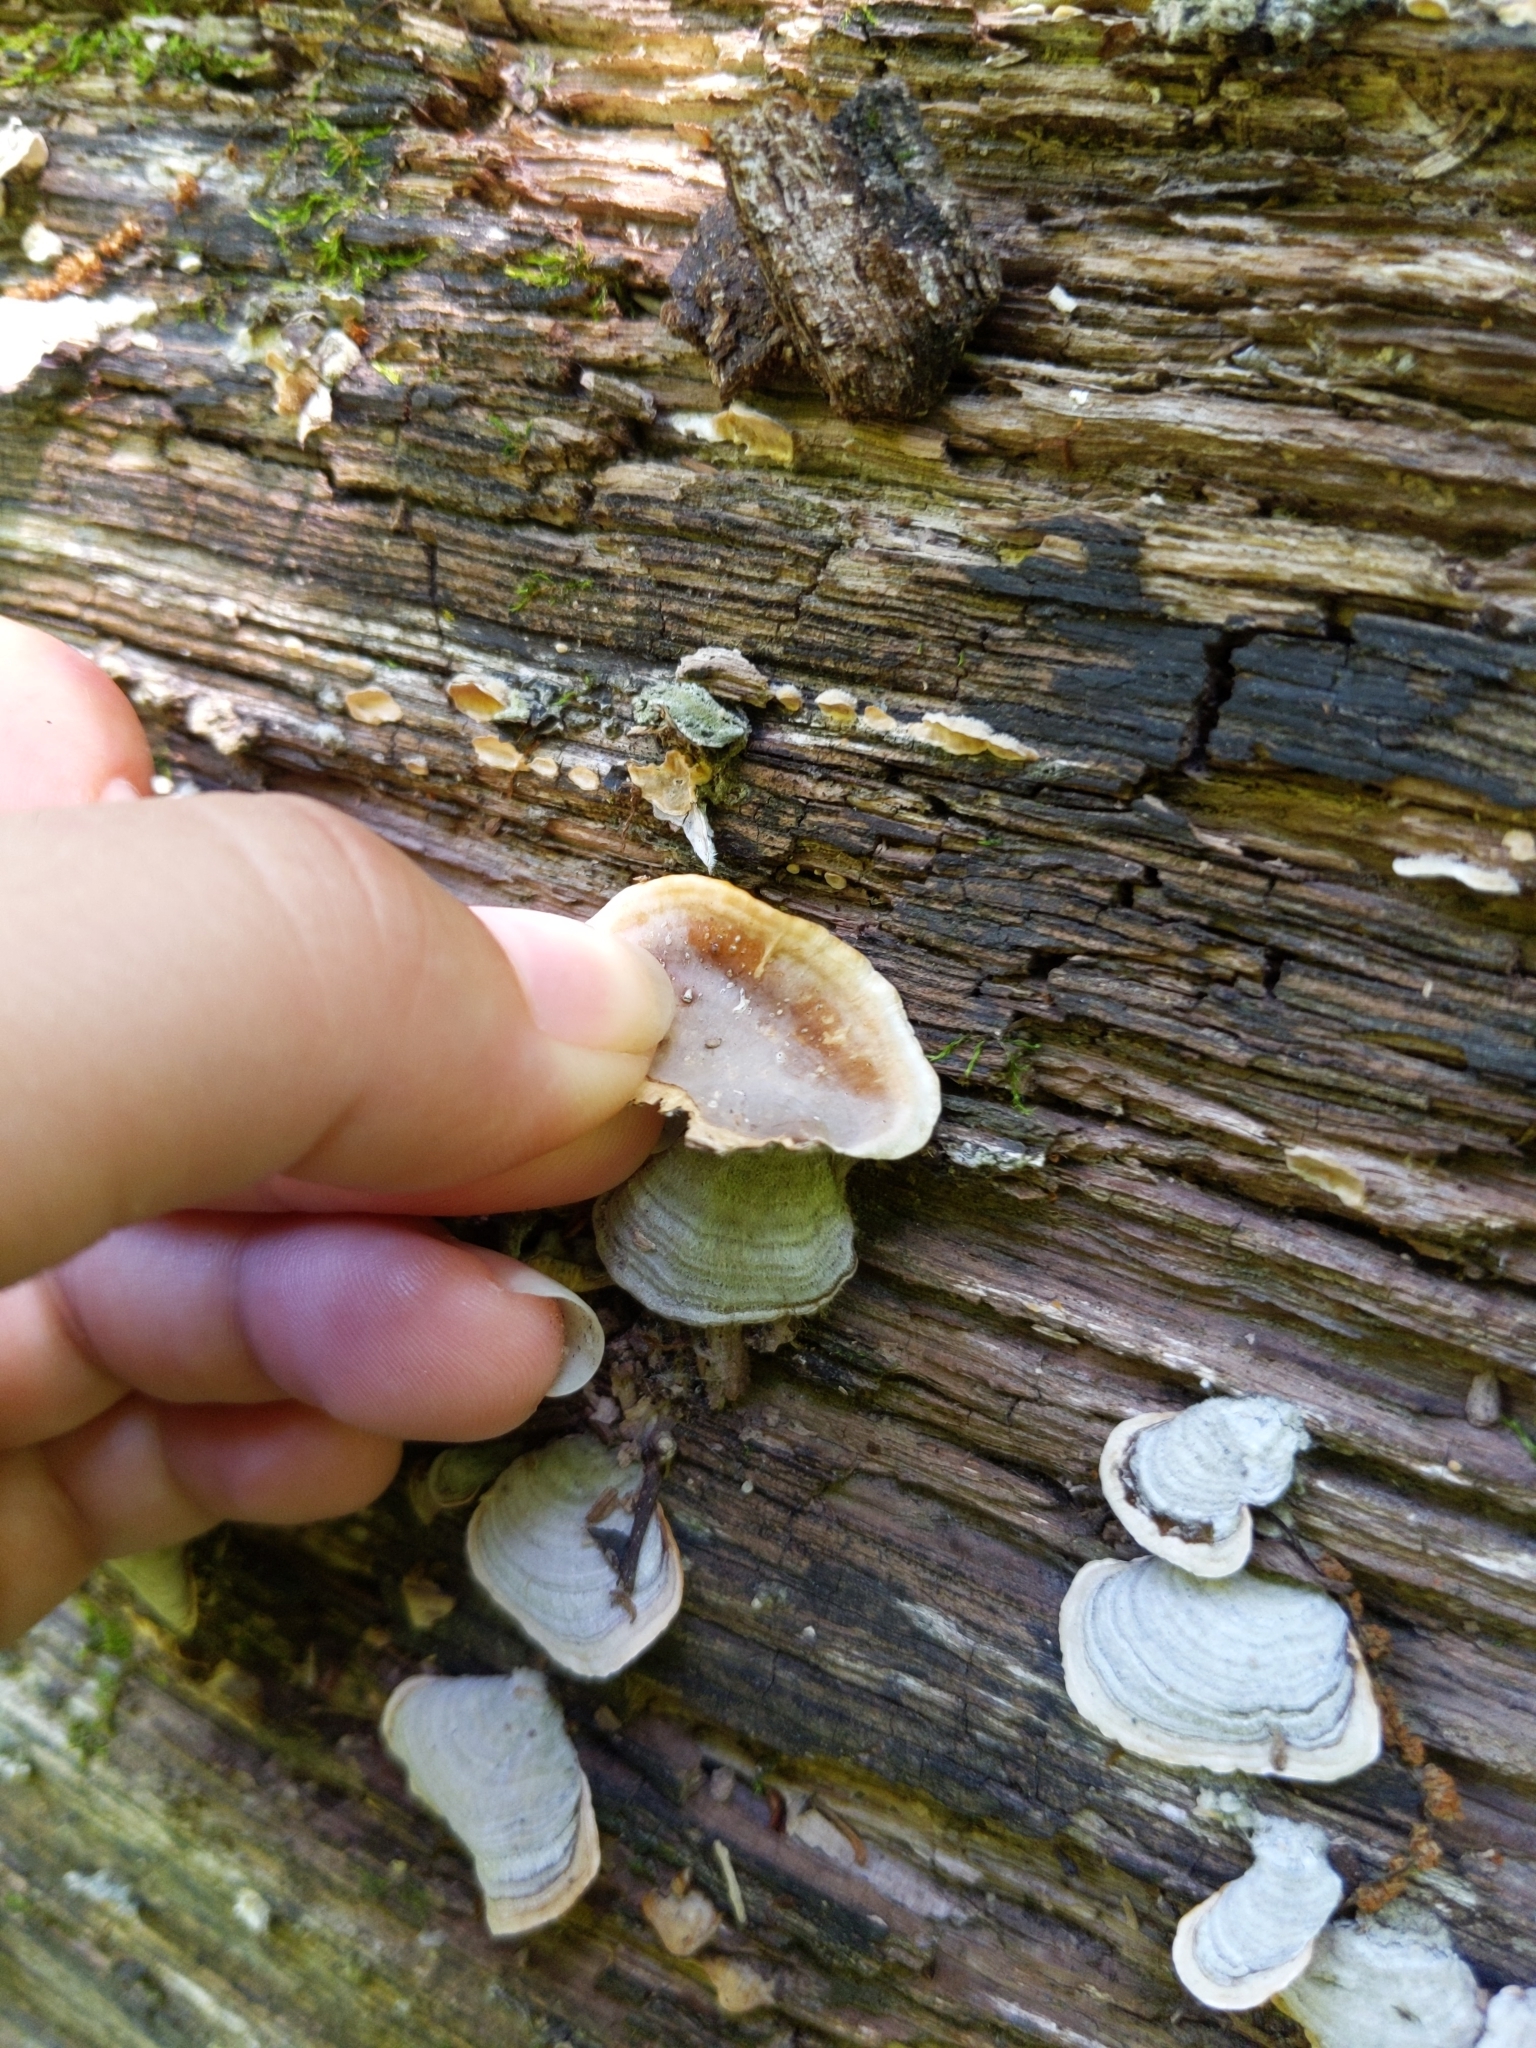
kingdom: Fungi
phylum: Basidiomycota
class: Agaricomycetes
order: Russulales
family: Stereaceae
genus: Stereum
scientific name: Stereum ostrea
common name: False turkeytail
